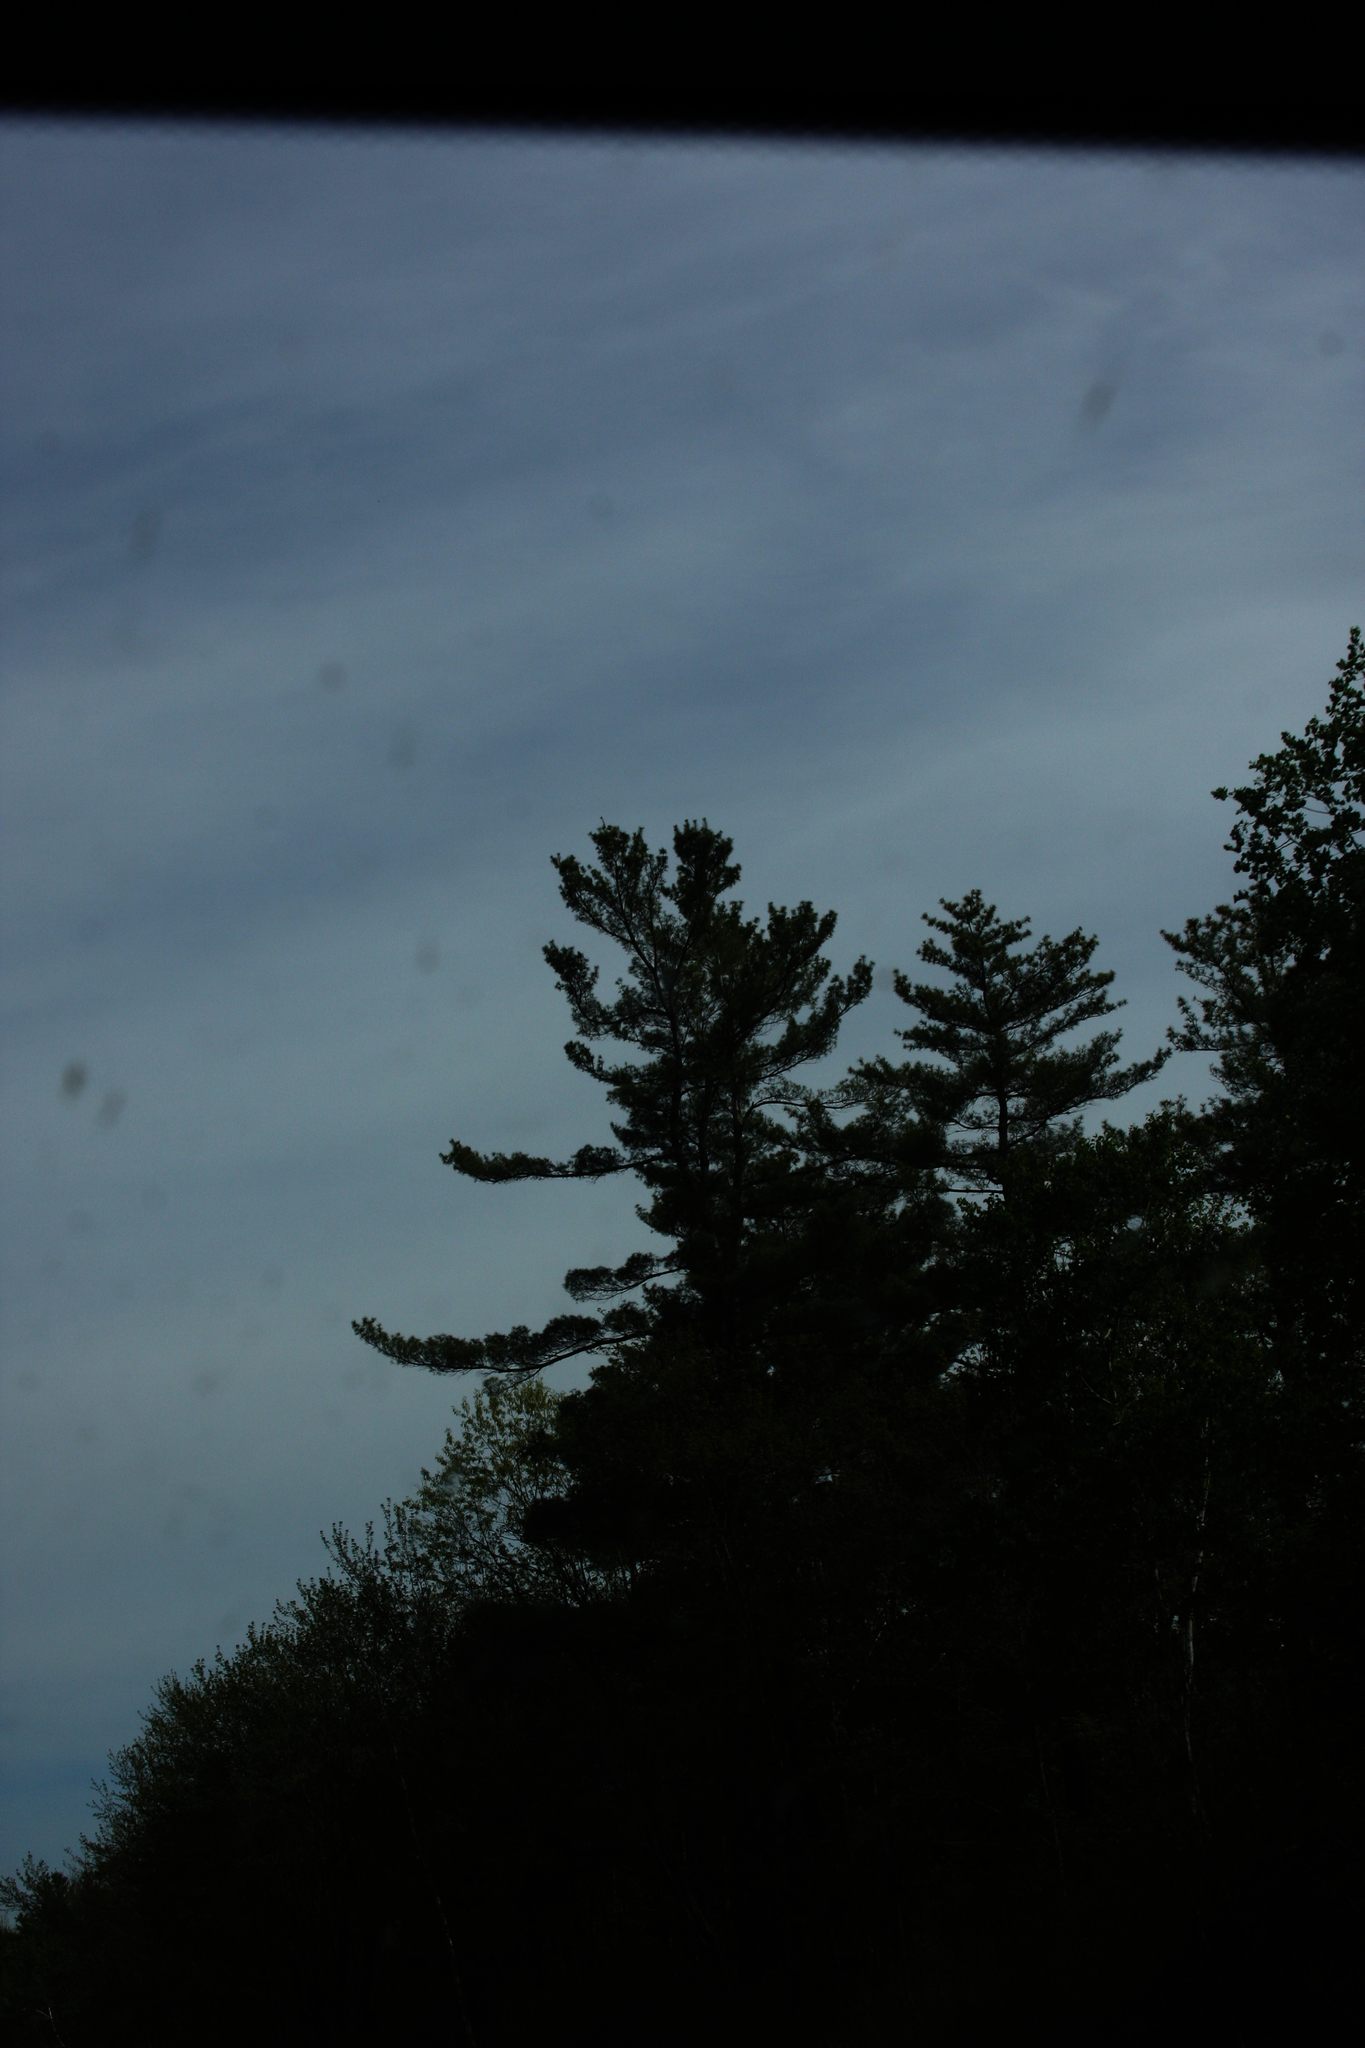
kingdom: Plantae
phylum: Tracheophyta
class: Pinopsida
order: Pinales
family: Pinaceae
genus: Pinus
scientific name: Pinus strobus
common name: Weymouth pine
